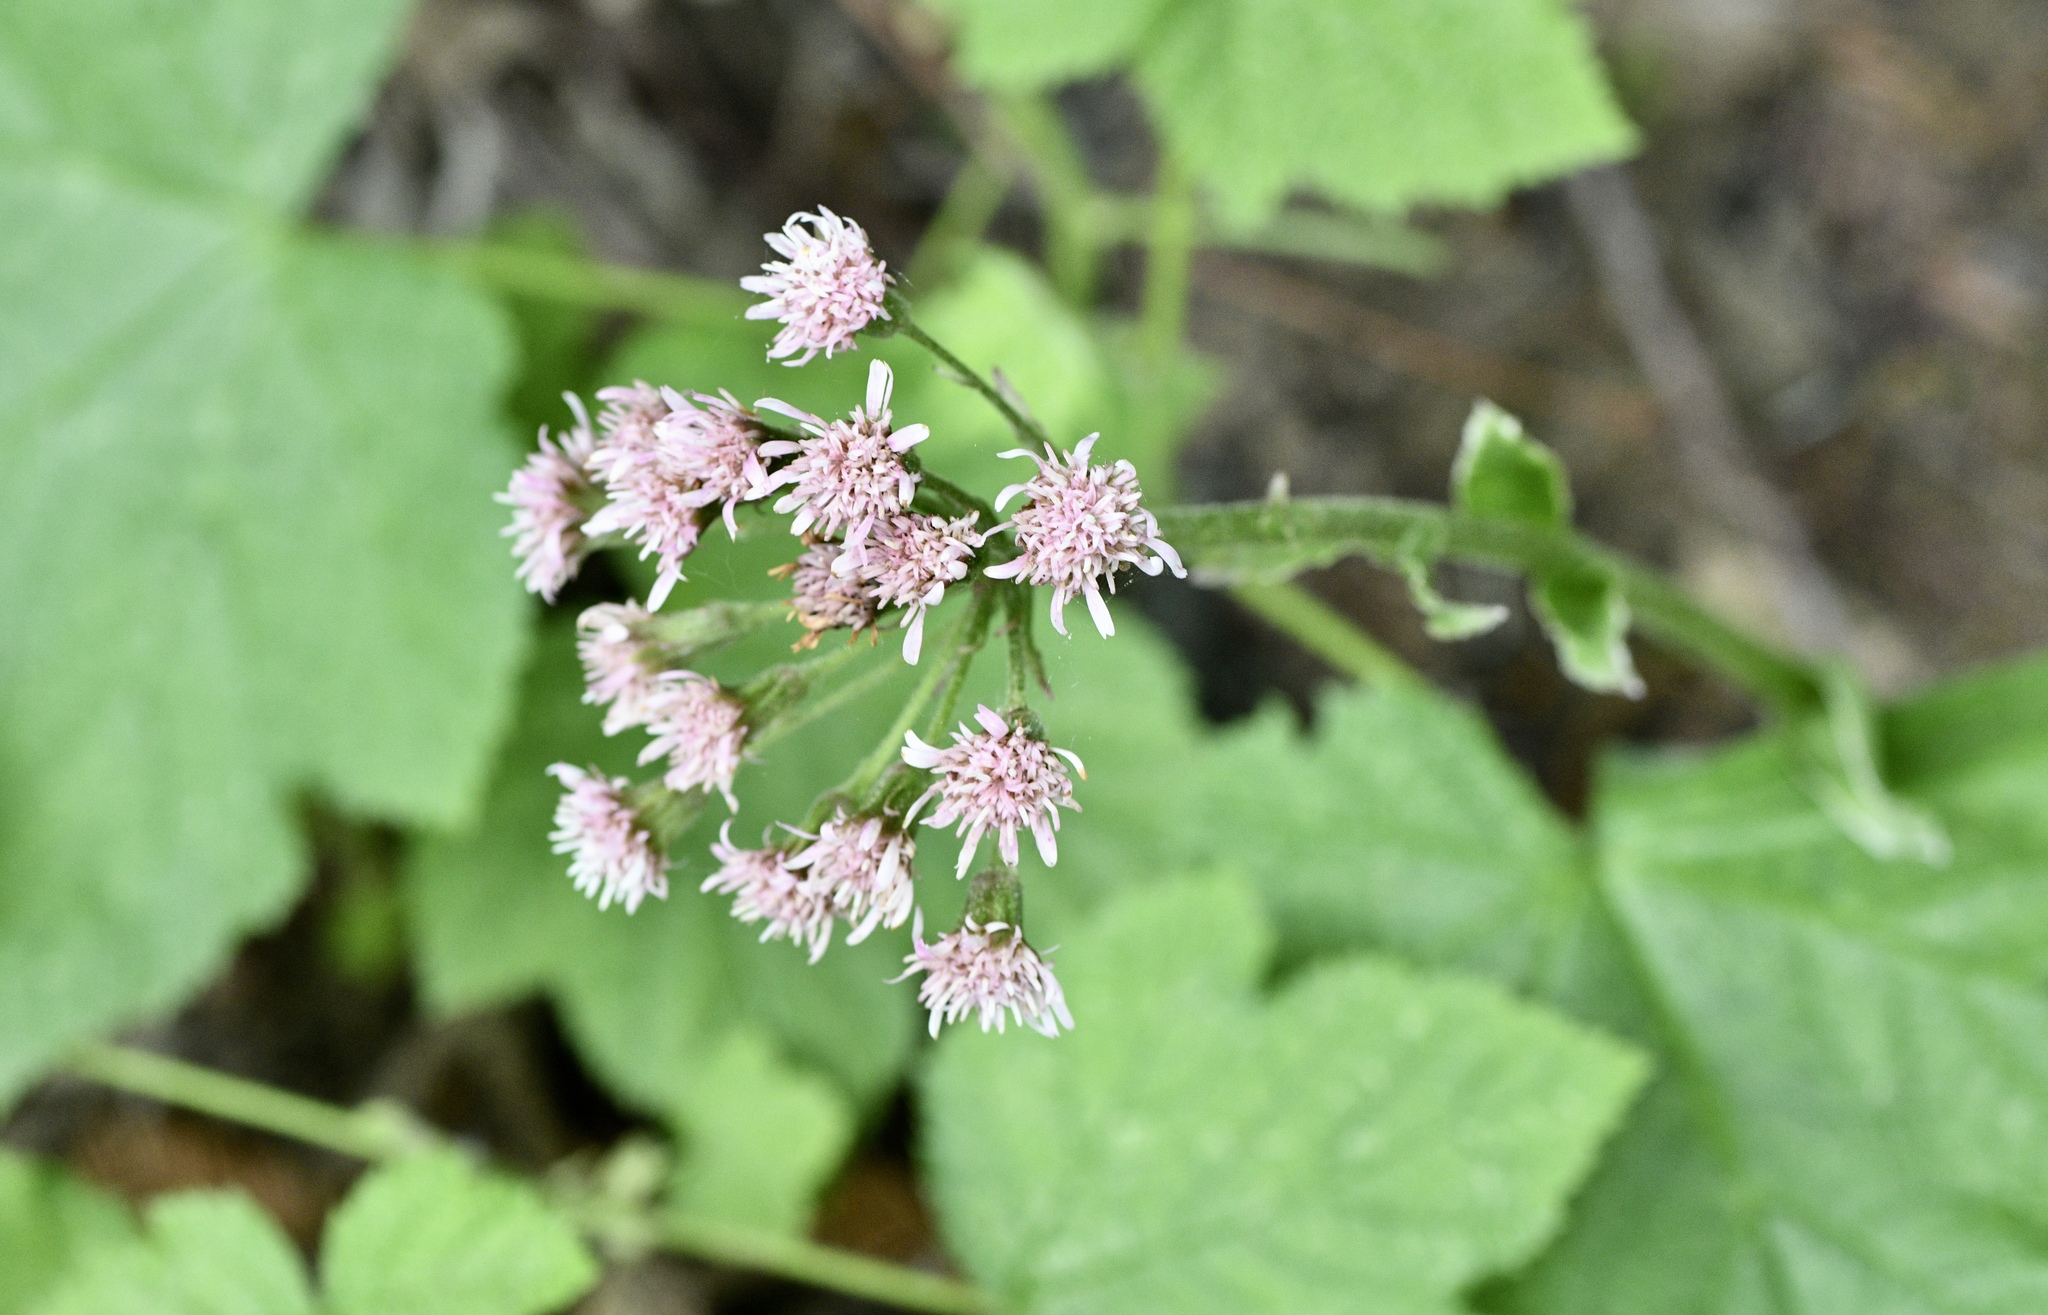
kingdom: Plantae
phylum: Tracheophyta
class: Magnoliopsida
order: Asterales
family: Asteraceae
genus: Petasites
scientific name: Petasites frigidus
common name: Arctic butterbur
